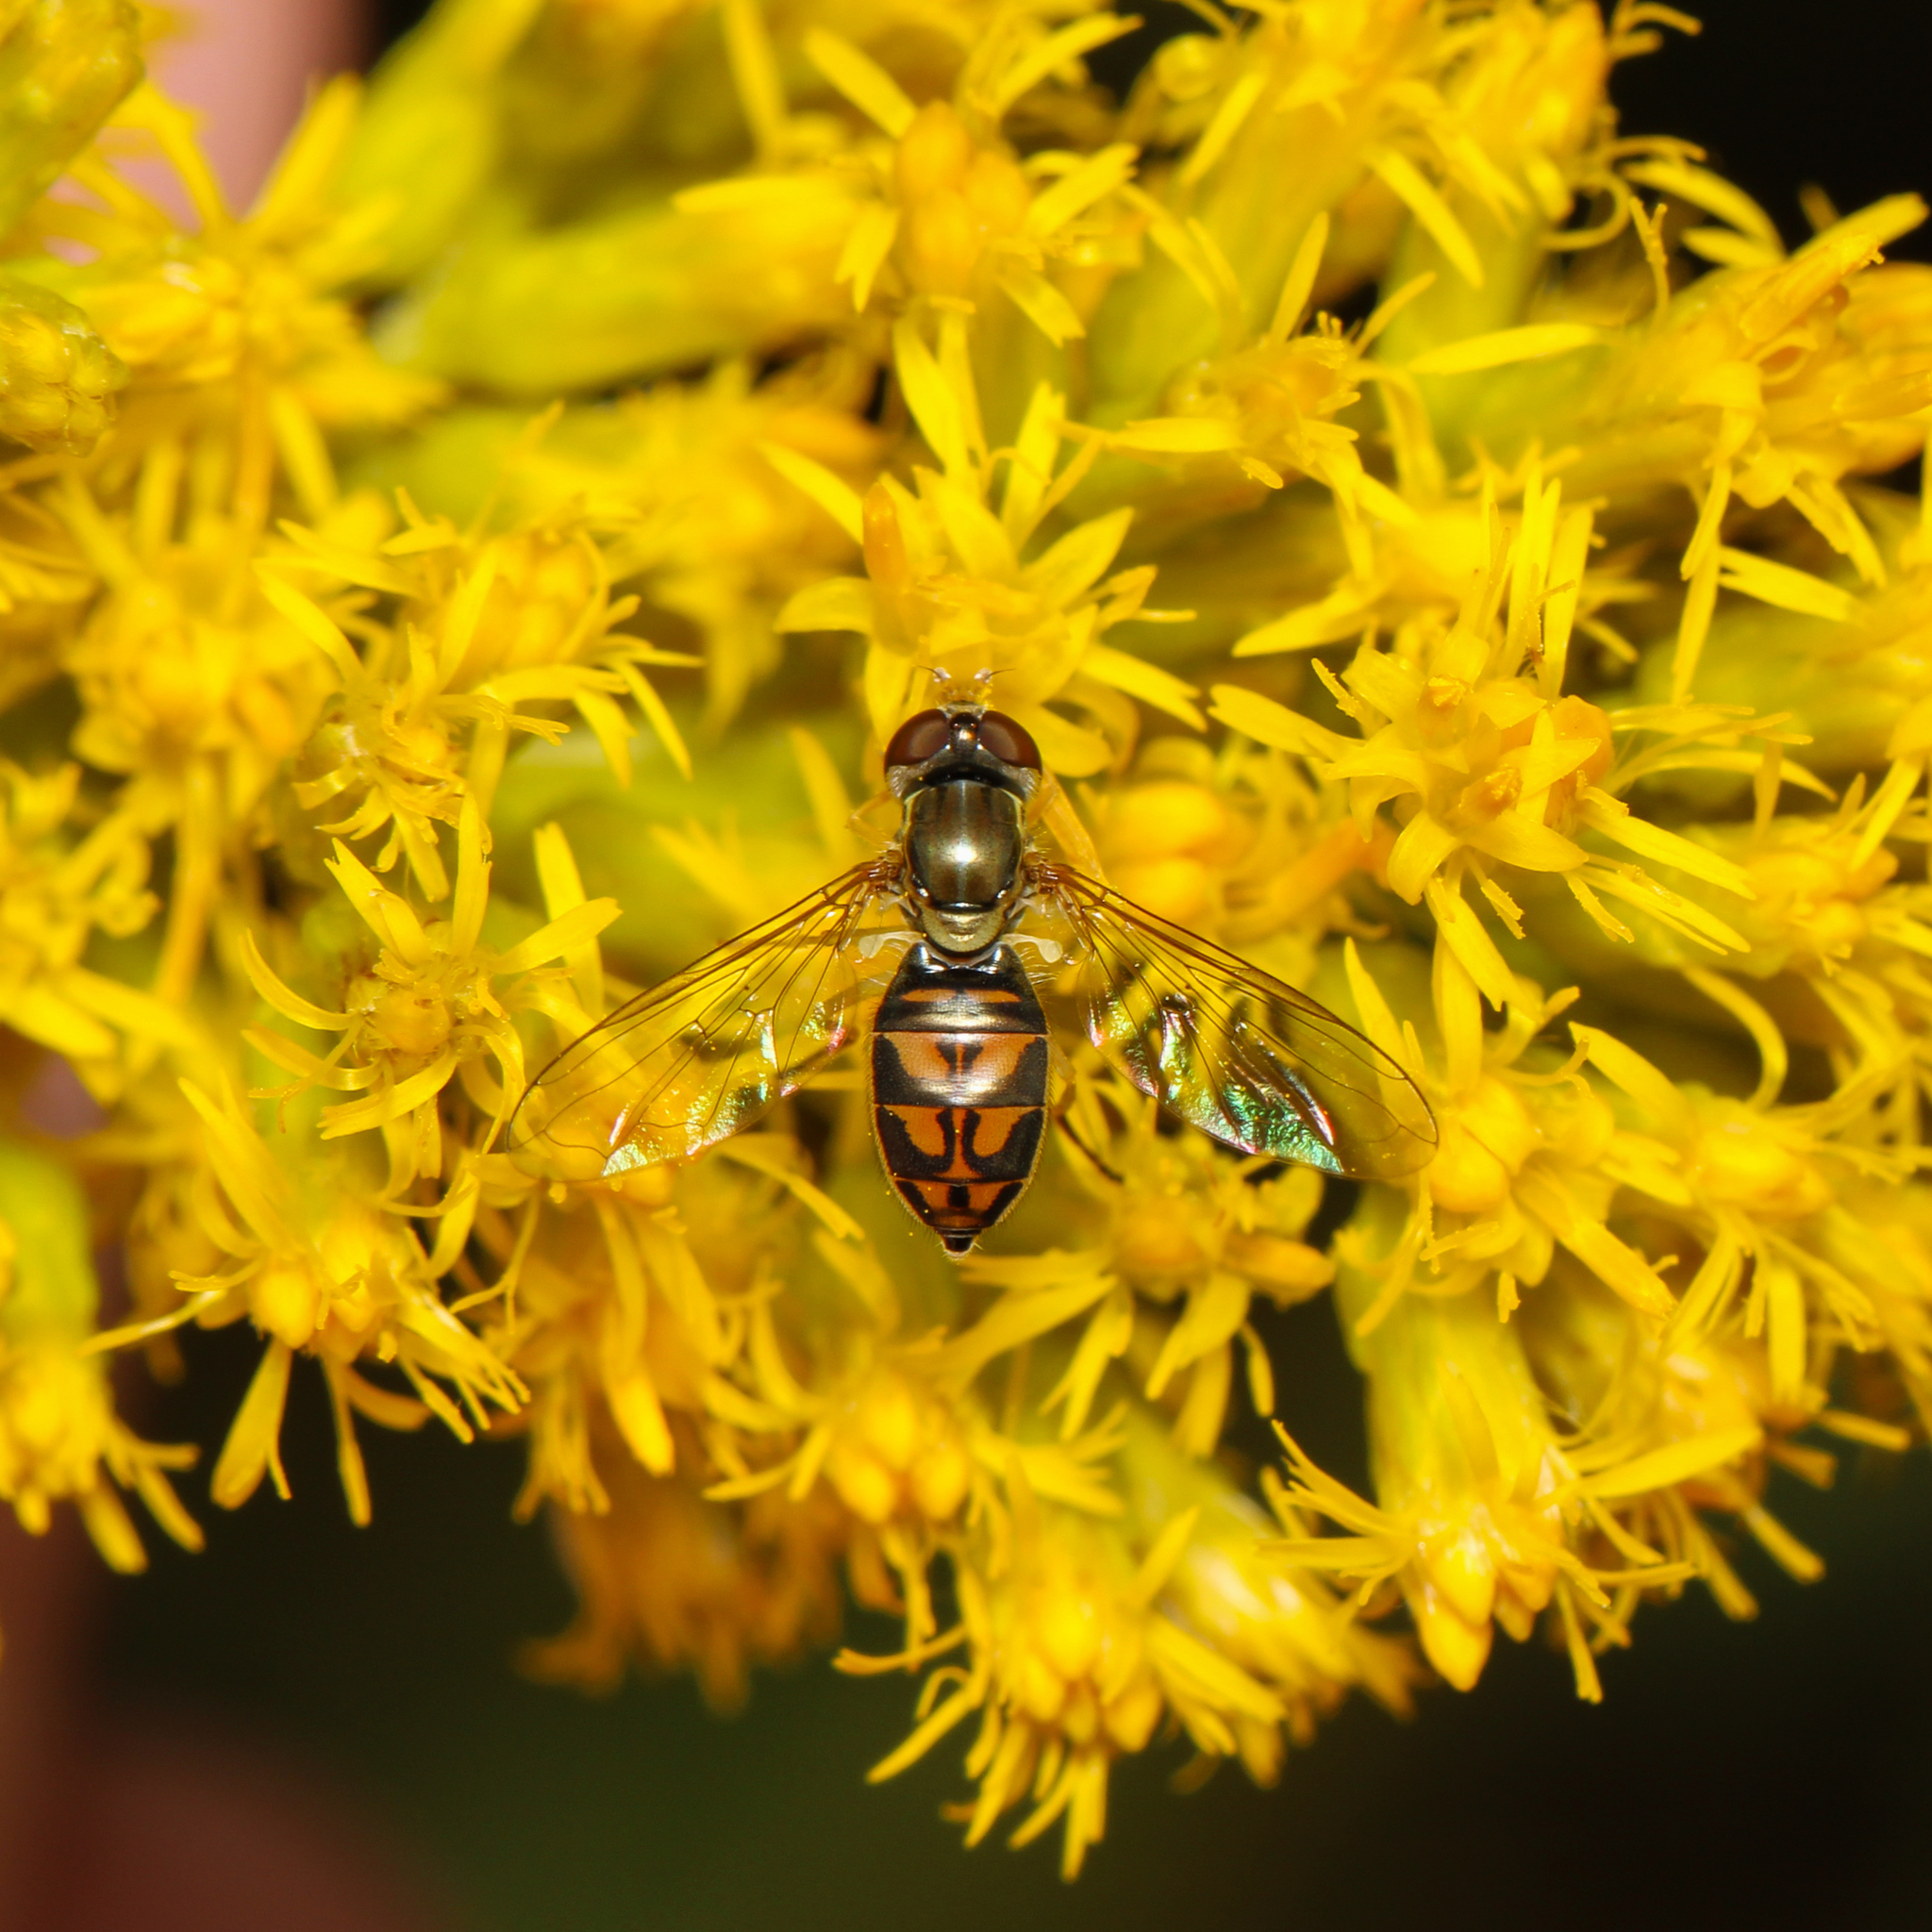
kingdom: Animalia
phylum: Arthropoda
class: Insecta
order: Diptera
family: Syrphidae
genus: Toxomerus
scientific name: Toxomerus marginatus
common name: Syrphid fly
